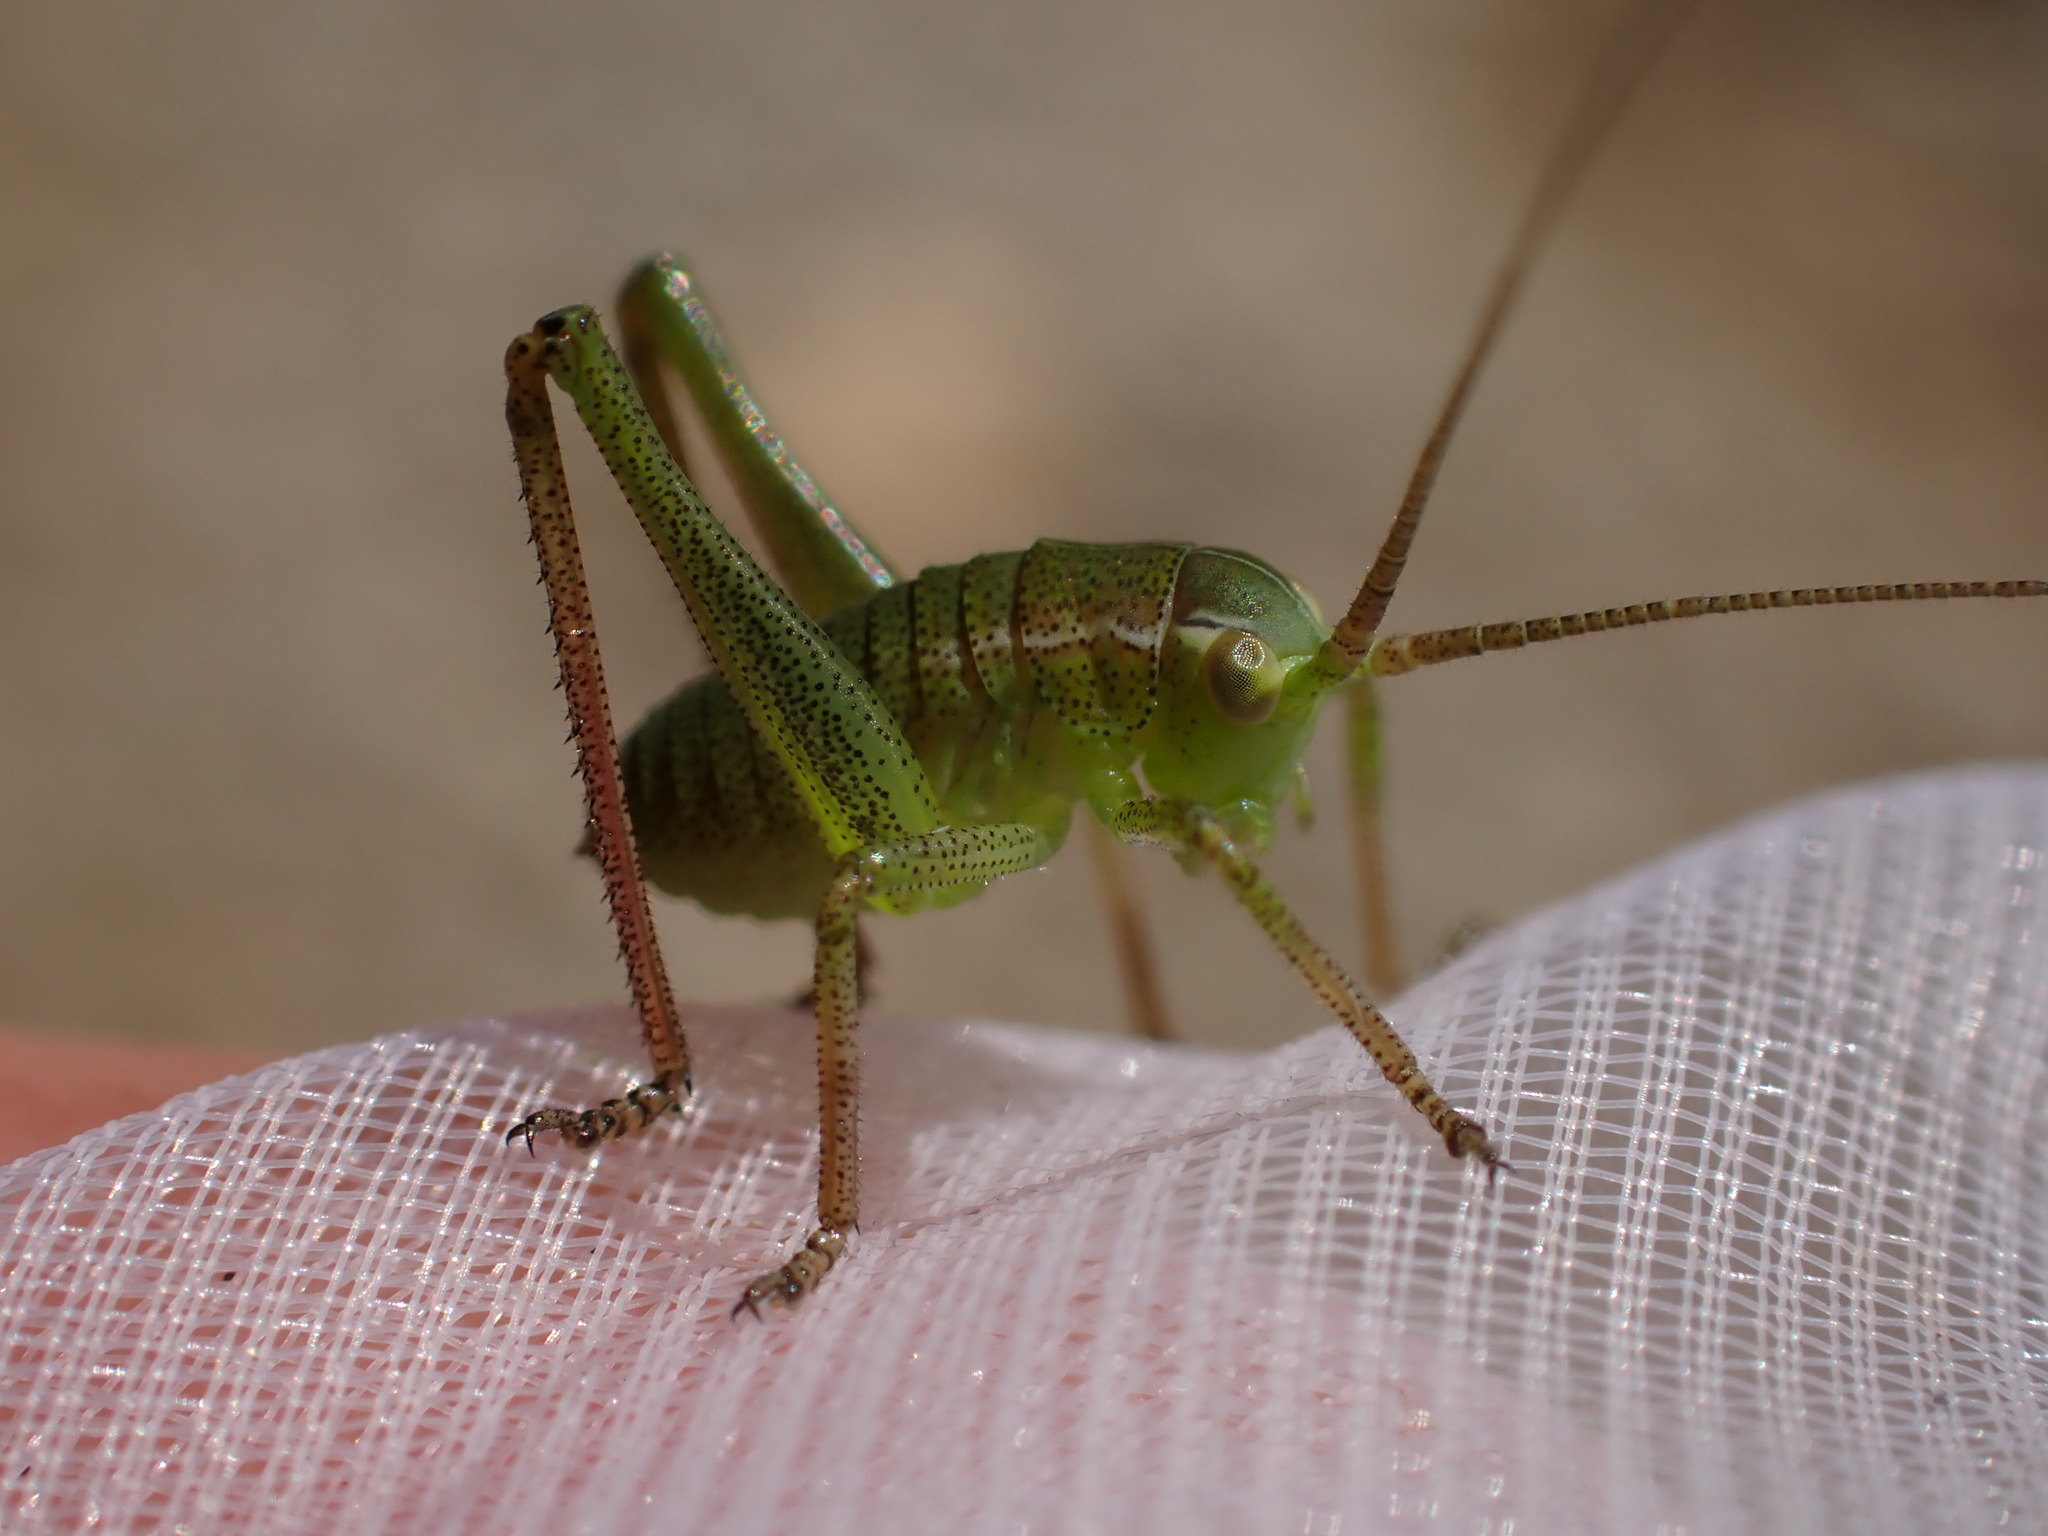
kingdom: Animalia
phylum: Arthropoda
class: Insecta
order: Orthoptera
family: Tettigoniidae
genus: Barbitistes
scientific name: Barbitistes fischeri
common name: Southern saw-tailed bush-cricket
